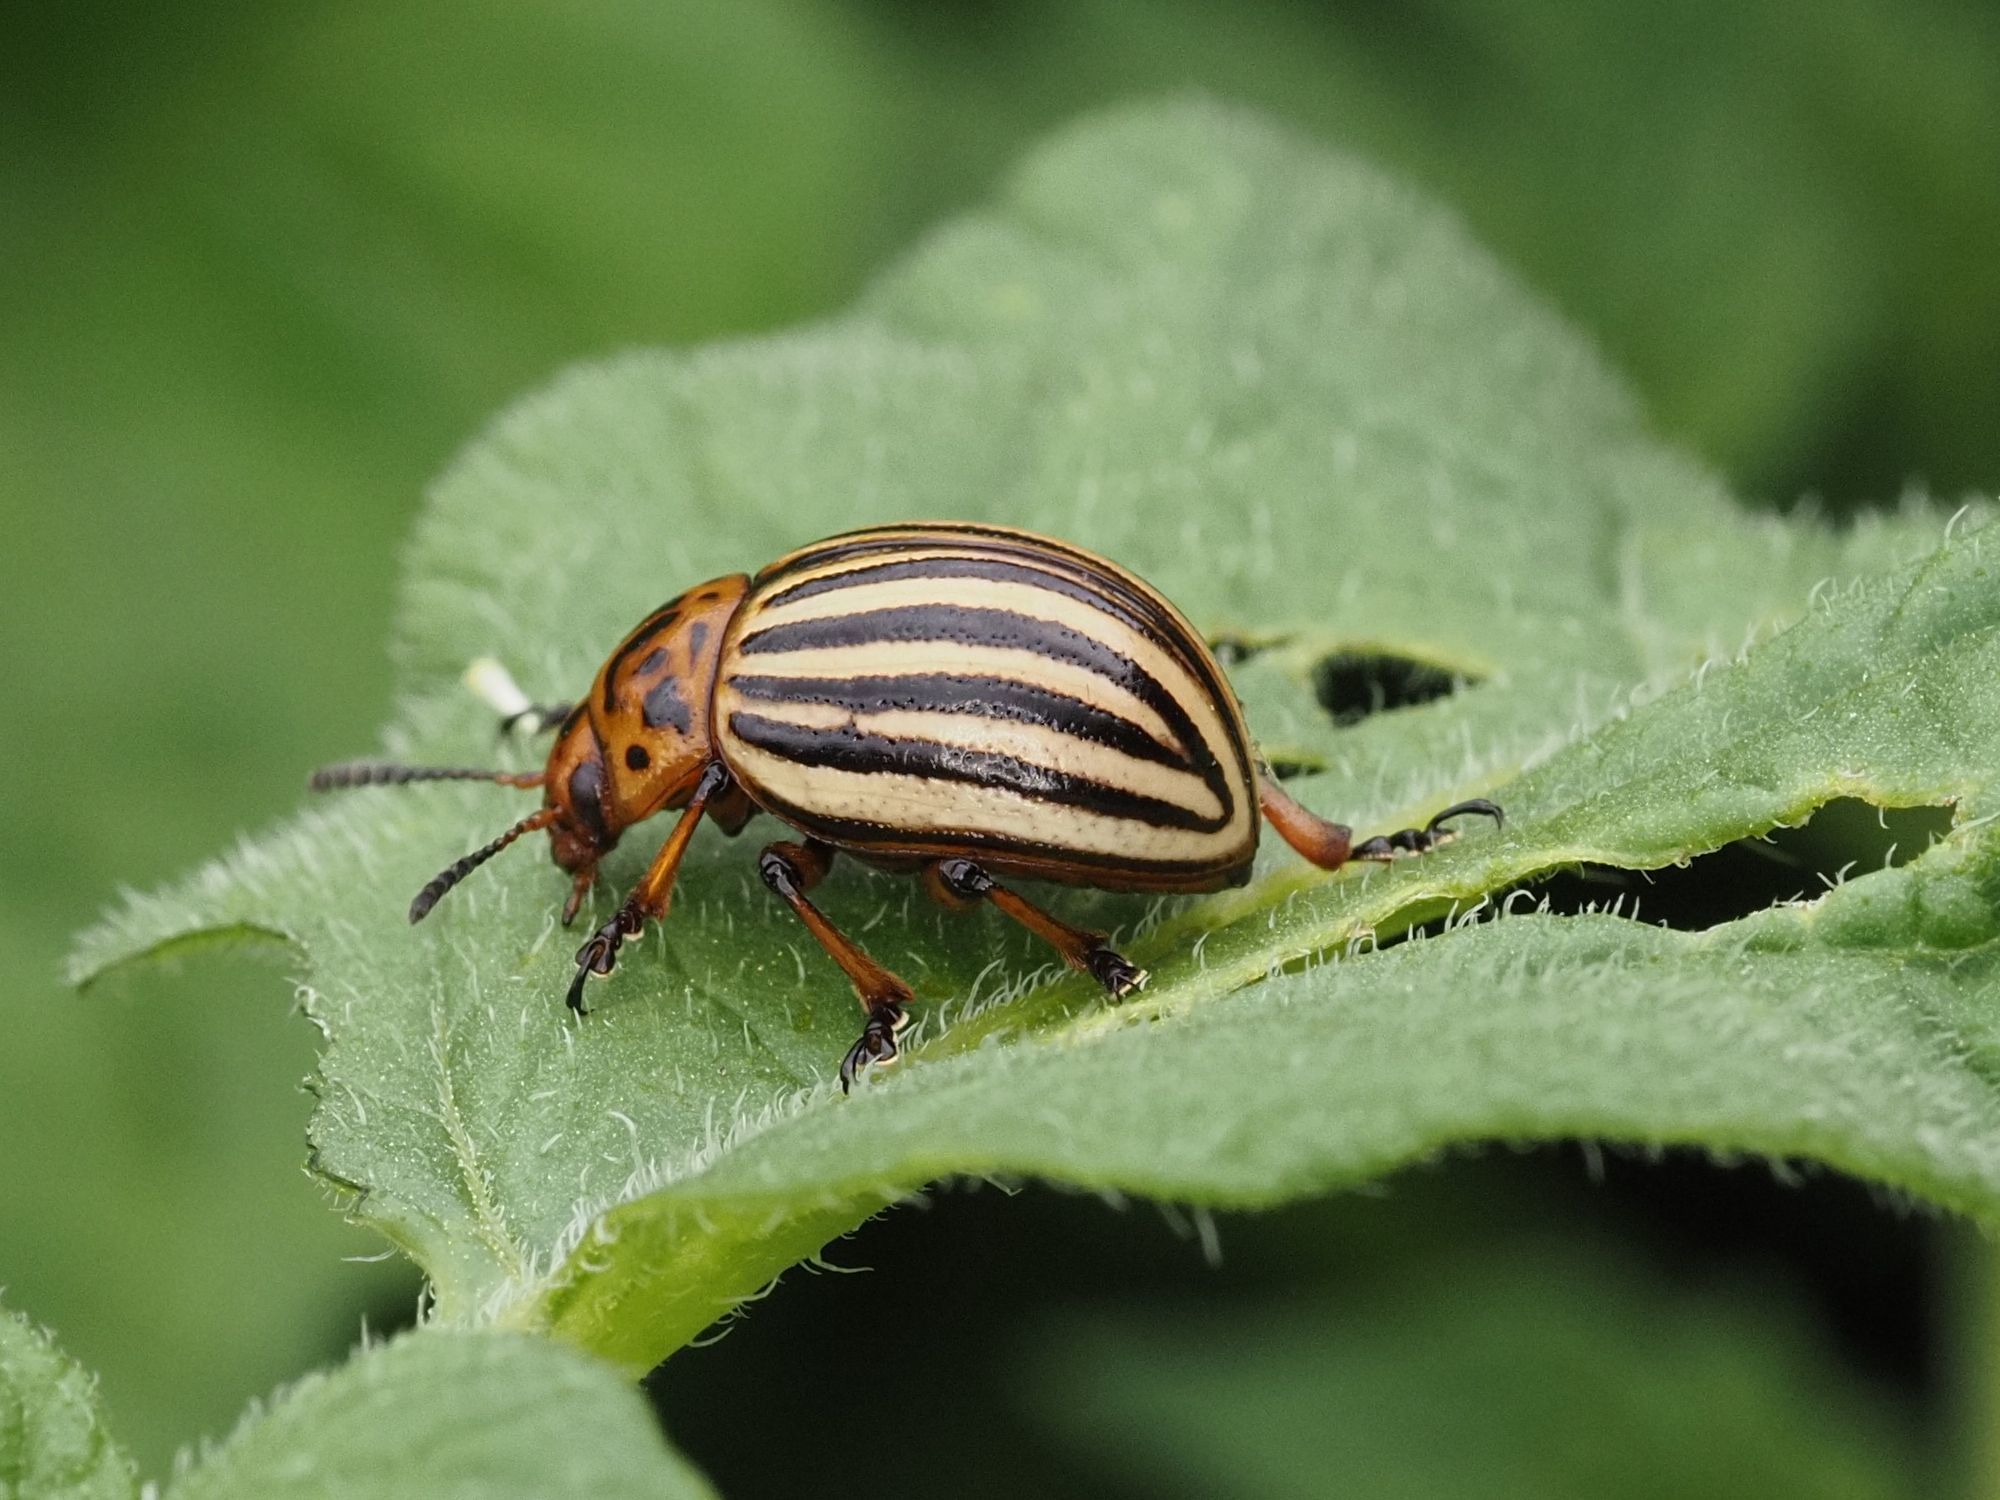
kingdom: Animalia
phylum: Arthropoda
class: Insecta
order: Coleoptera
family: Chrysomelidae
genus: Leptinotarsa
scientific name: Leptinotarsa decemlineata
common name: Colorado potato beetle
